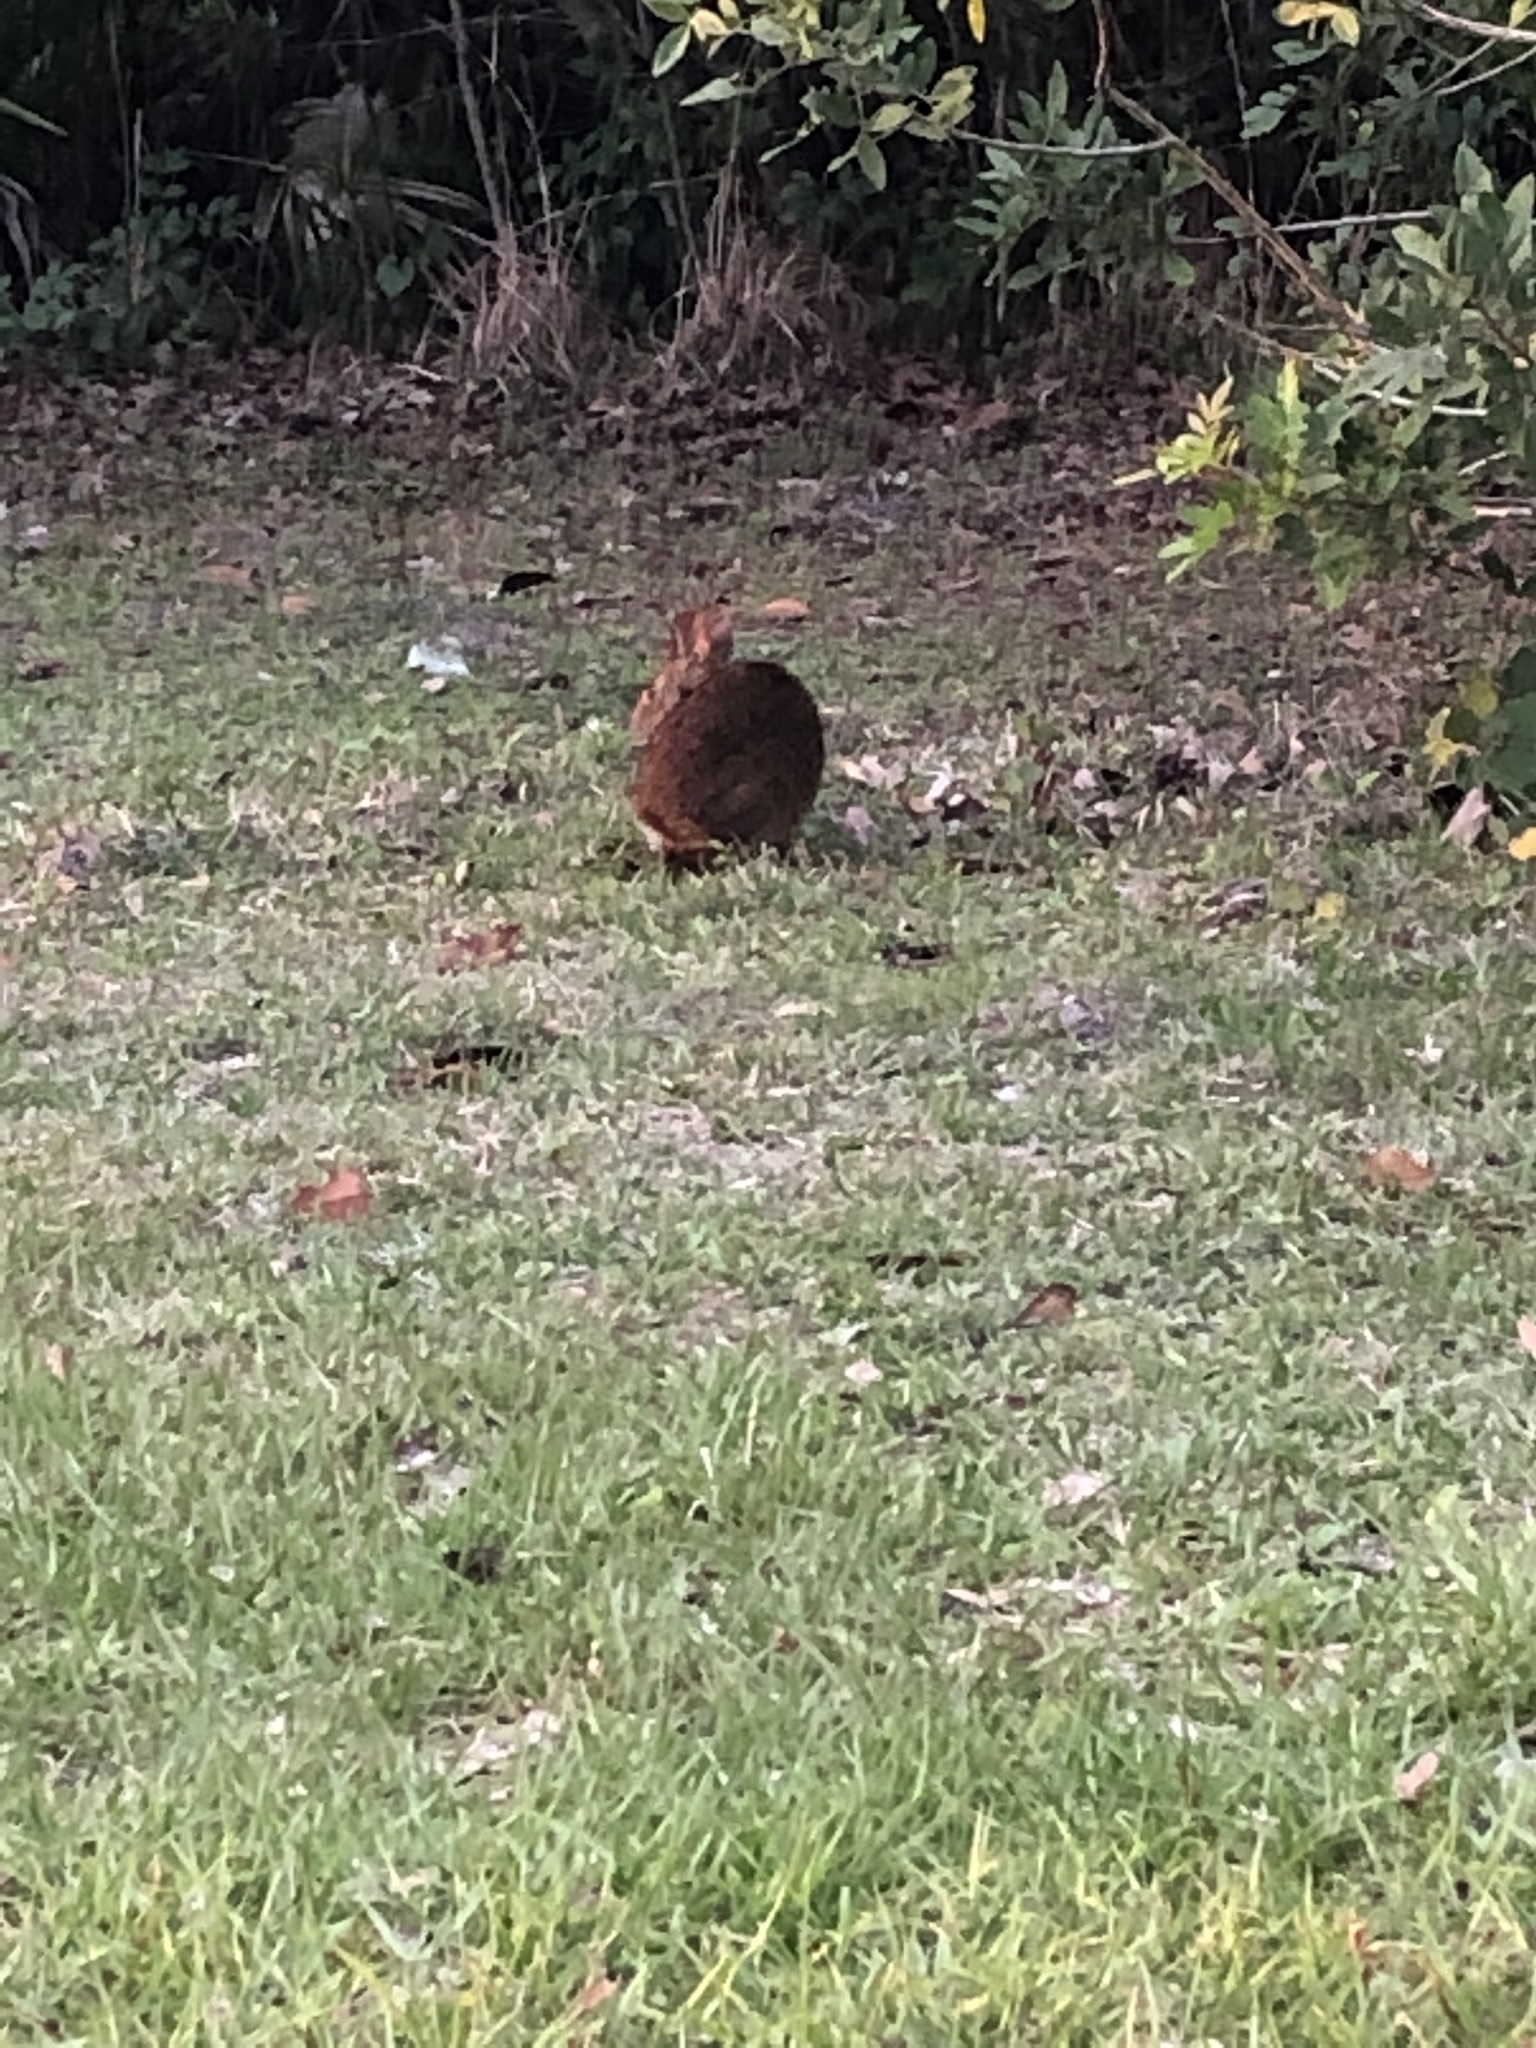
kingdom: Animalia
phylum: Chordata
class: Mammalia
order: Lagomorpha
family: Leporidae
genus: Sylvilagus
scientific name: Sylvilagus palustris
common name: Marsh rabbit
